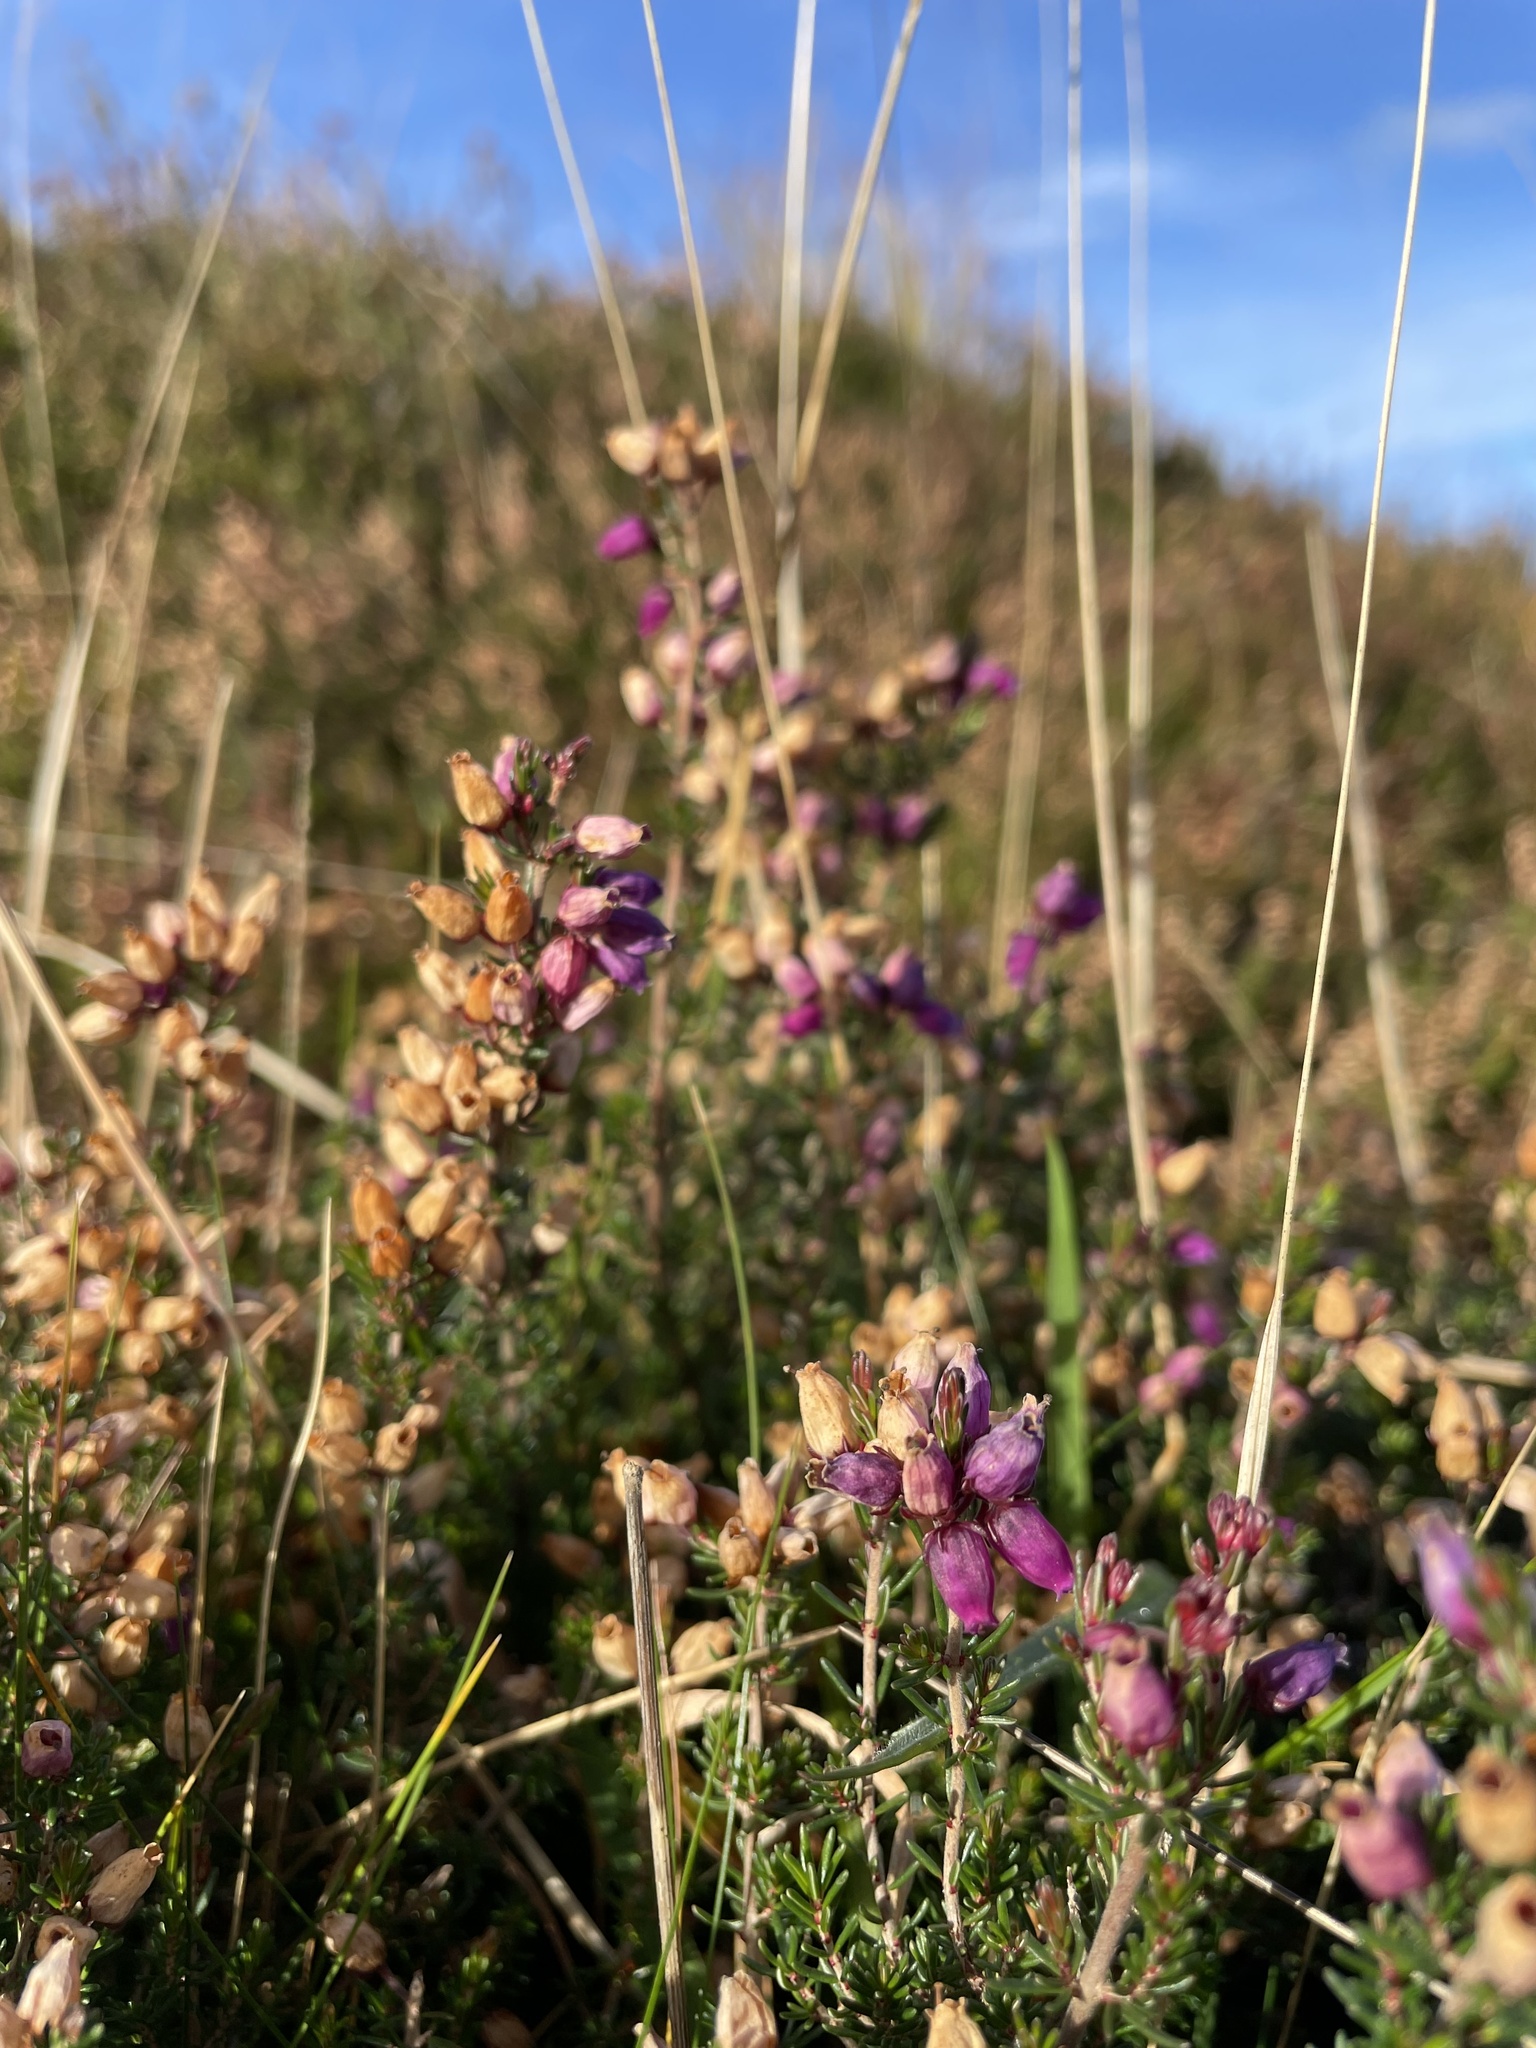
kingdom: Plantae
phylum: Tracheophyta
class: Magnoliopsida
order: Ericales
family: Ericaceae
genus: Erica
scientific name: Erica cinerea
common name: Bell heather
